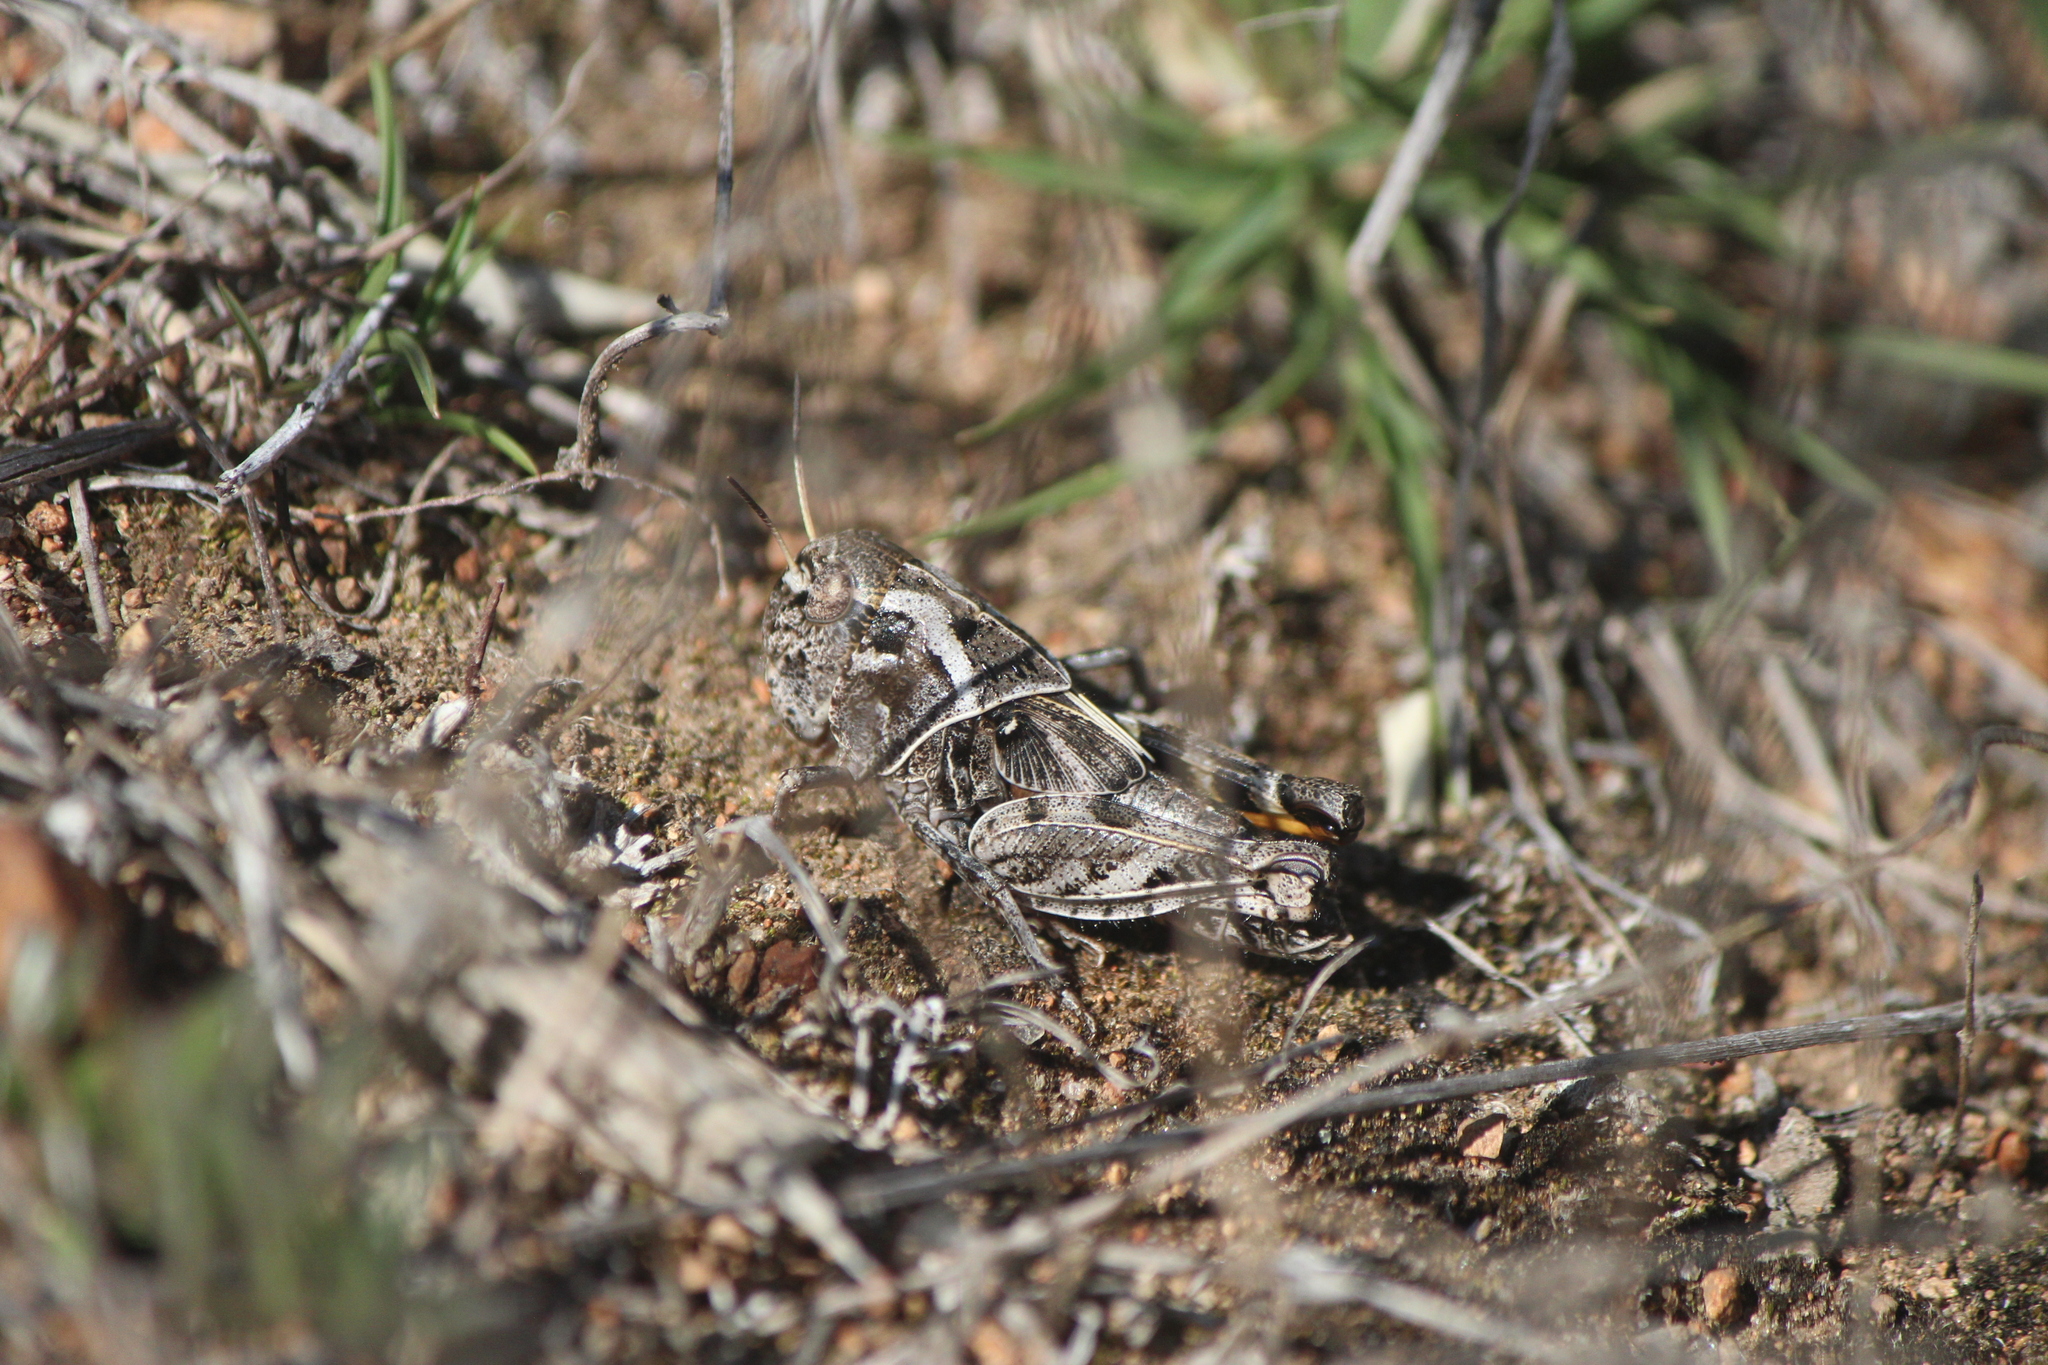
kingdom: Animalia
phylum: Arthropoda
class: Insecta
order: Orthoptera
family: Acrididae
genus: Hippiscus
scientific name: Hippiscus ocelote
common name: Wrinkled grasshopper
